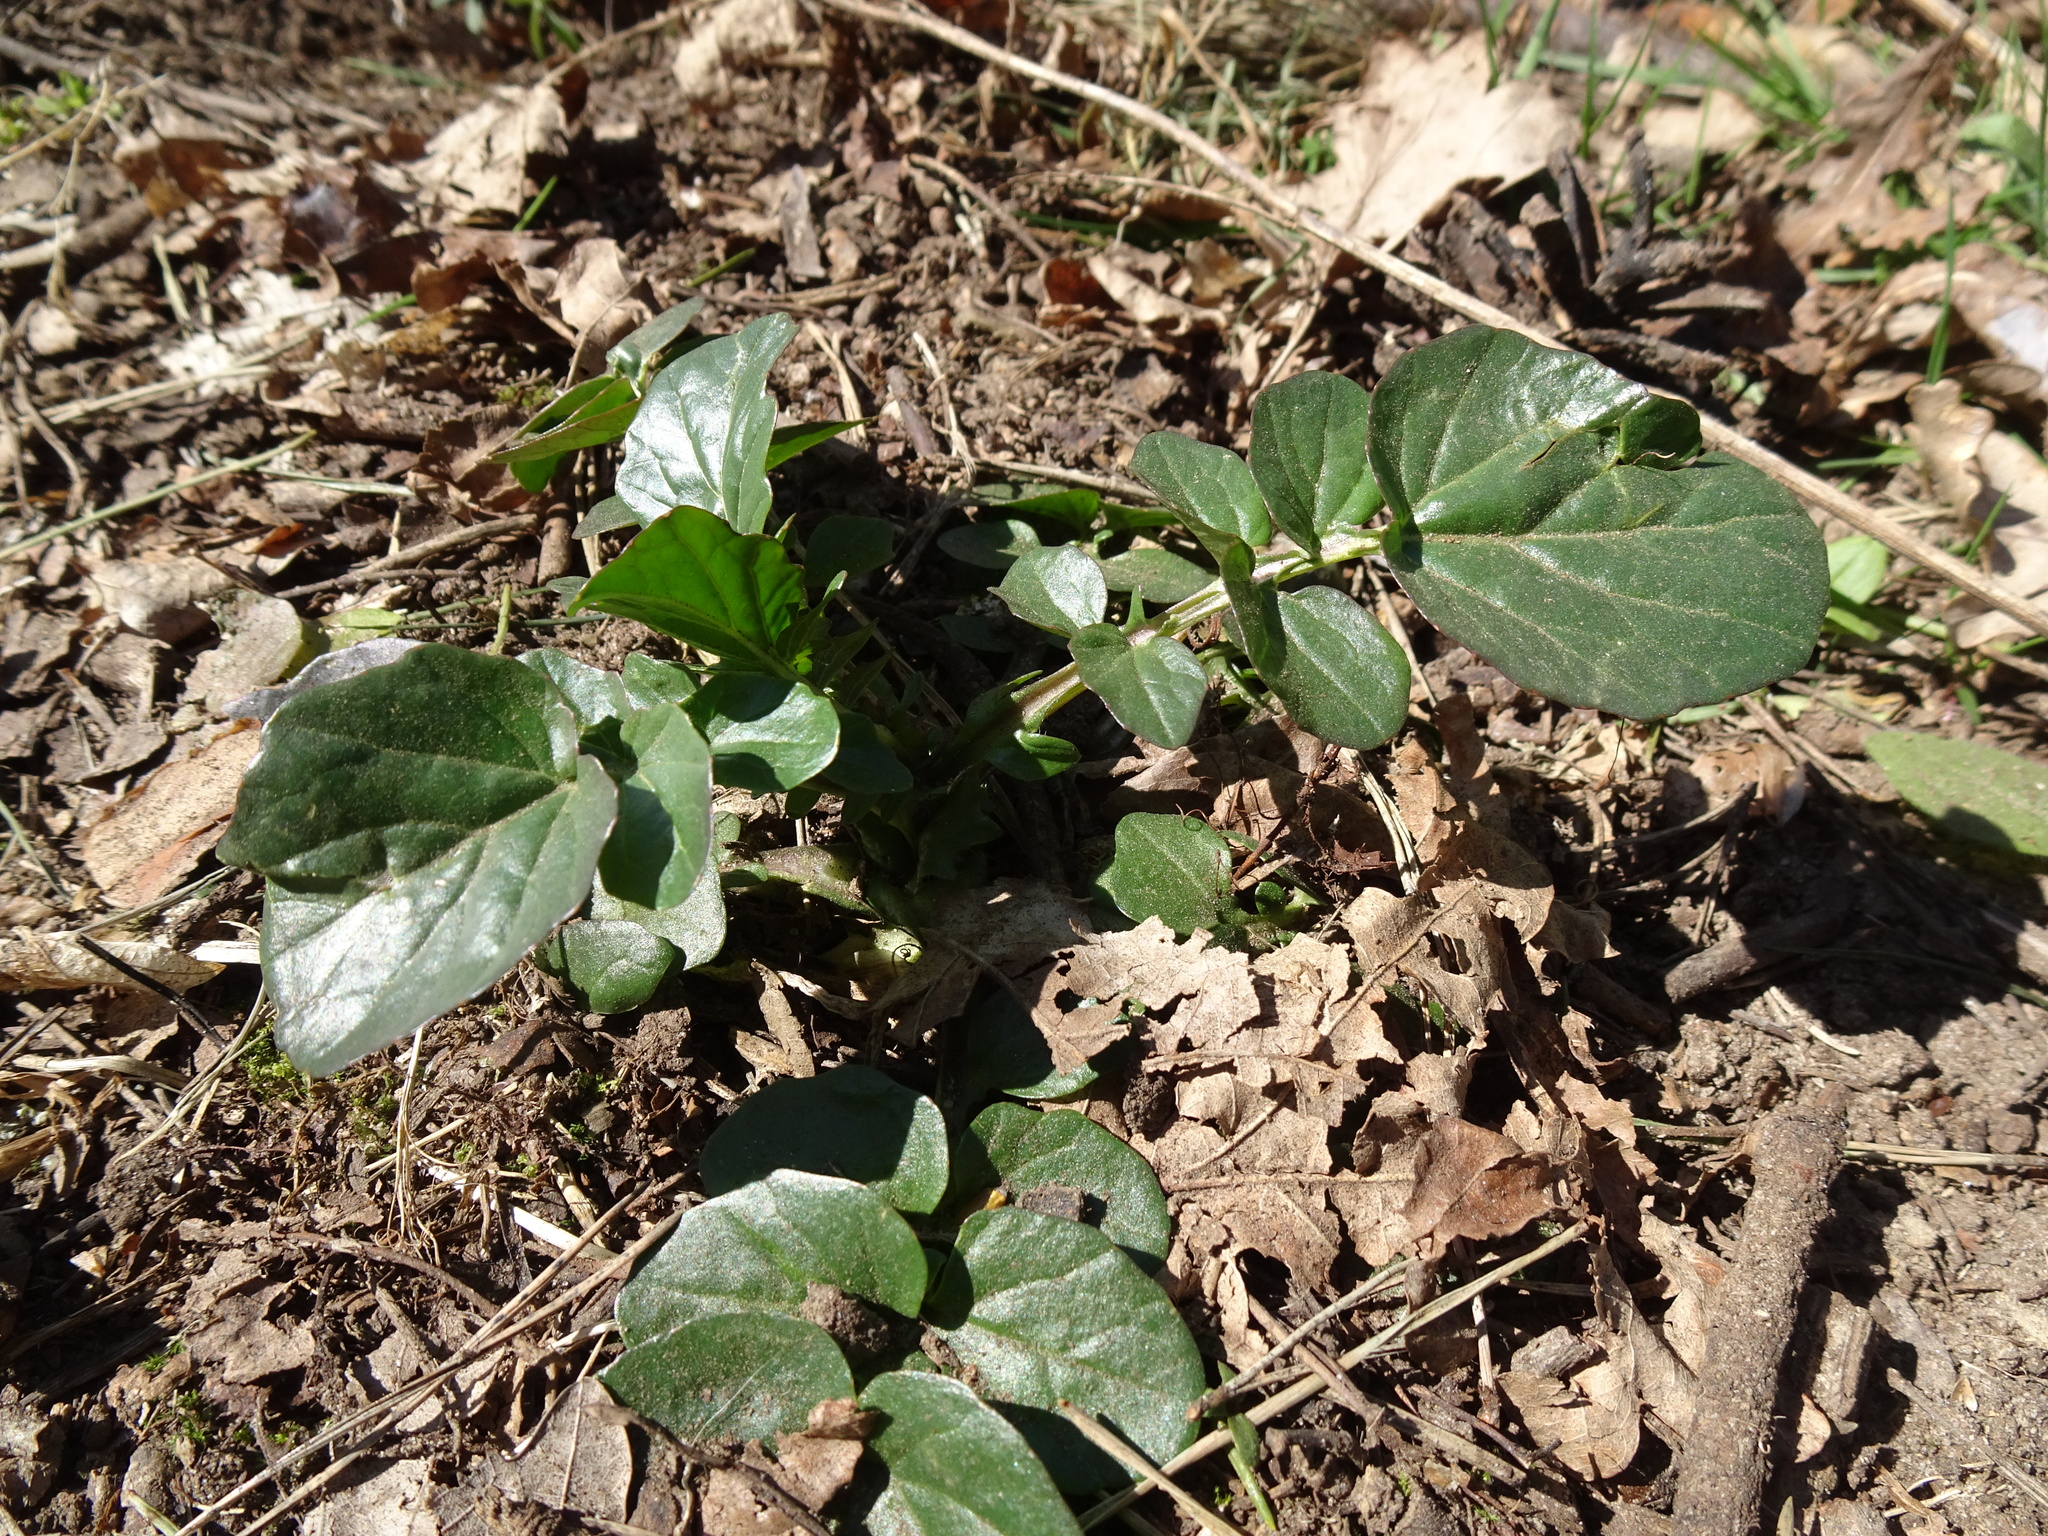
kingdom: Plantae
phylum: Tracheophyta
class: Magnoliopsida
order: Brassicales
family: Brassicaceae
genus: Barbarea
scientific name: Barbarea vulgaris
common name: Cressy-greens
